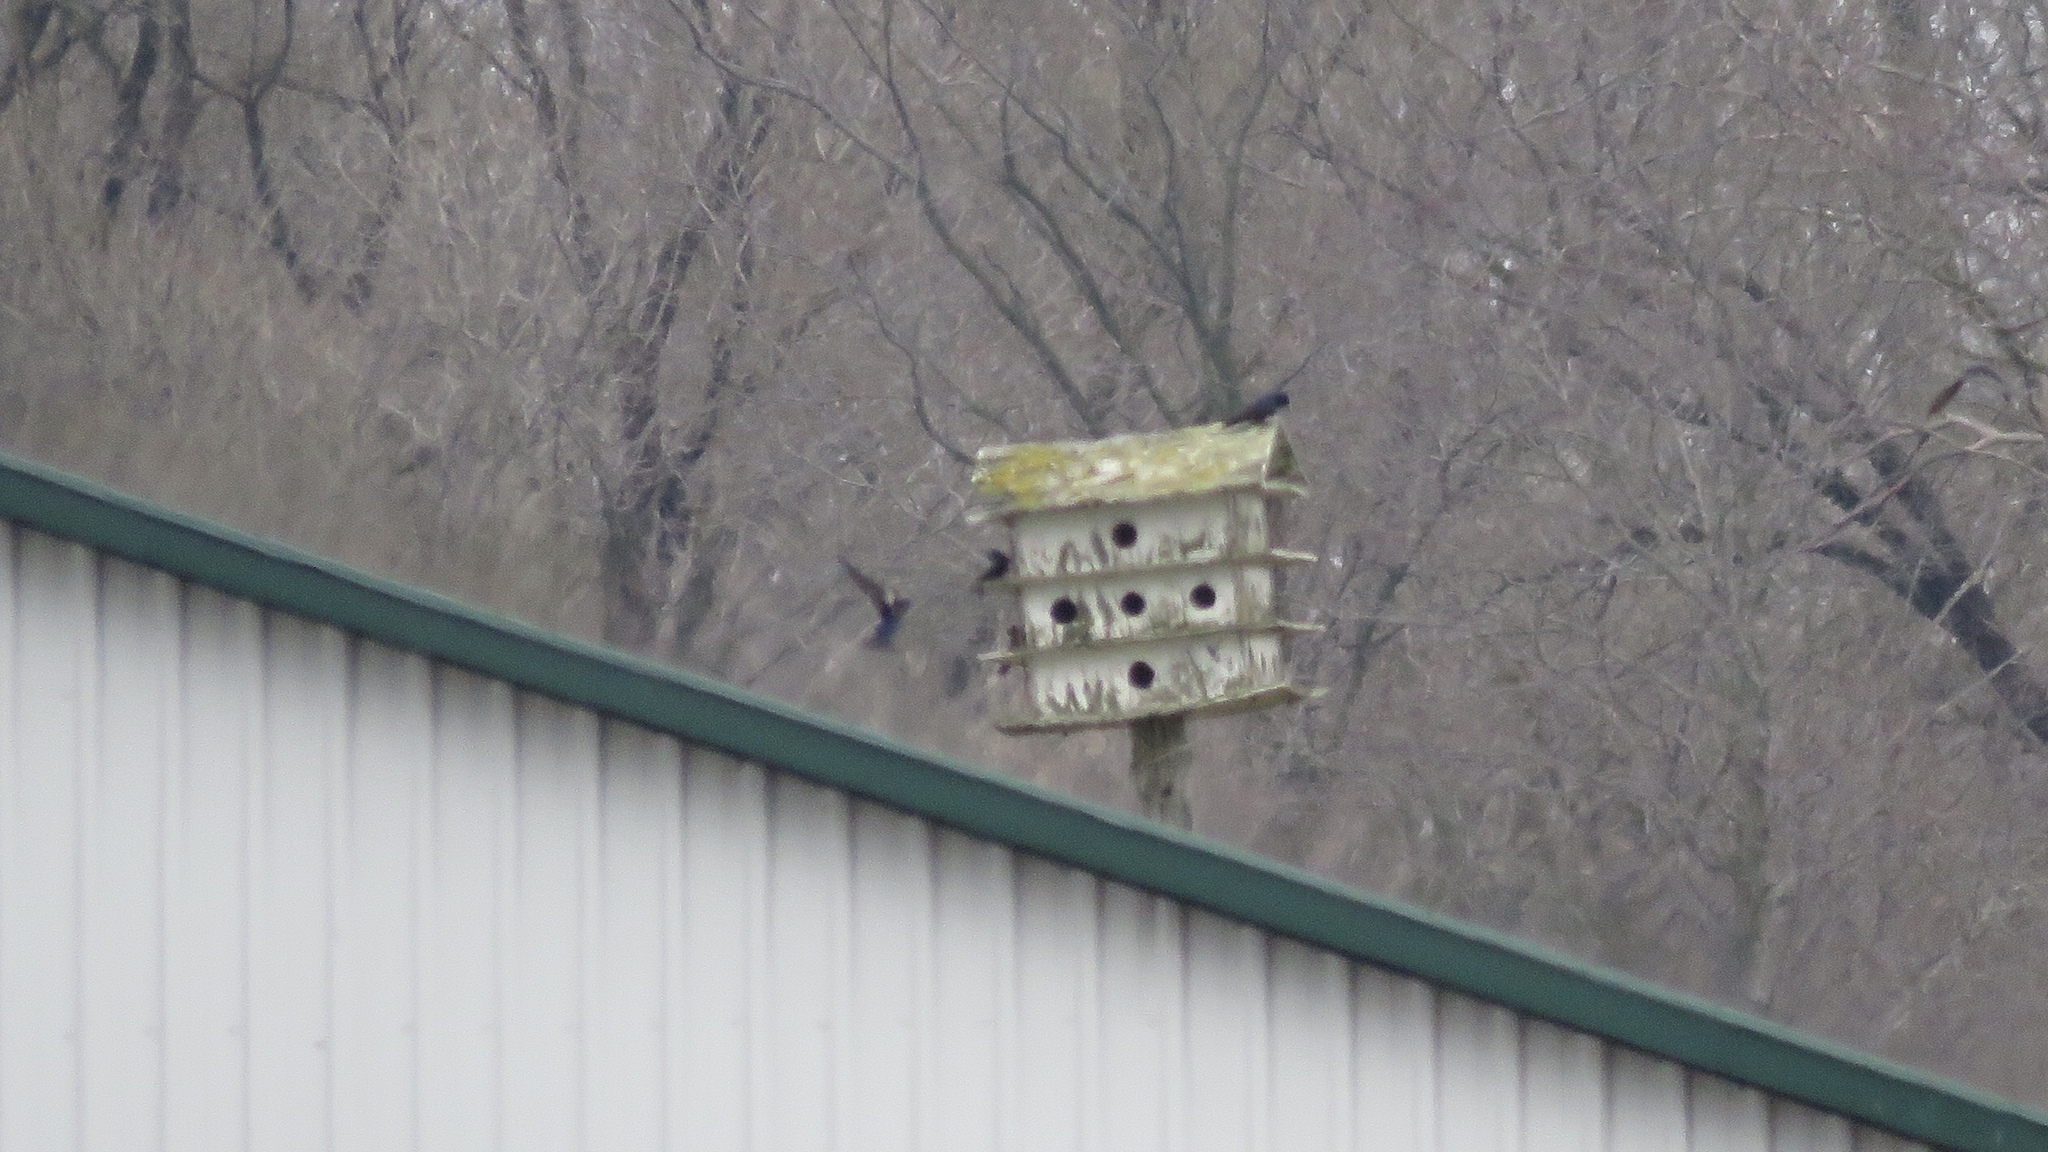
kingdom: Animalia
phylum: Chordata
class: Aves
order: Passeriformes
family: Hirundinidae
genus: Progne
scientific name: Progne subis
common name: Purple martin
